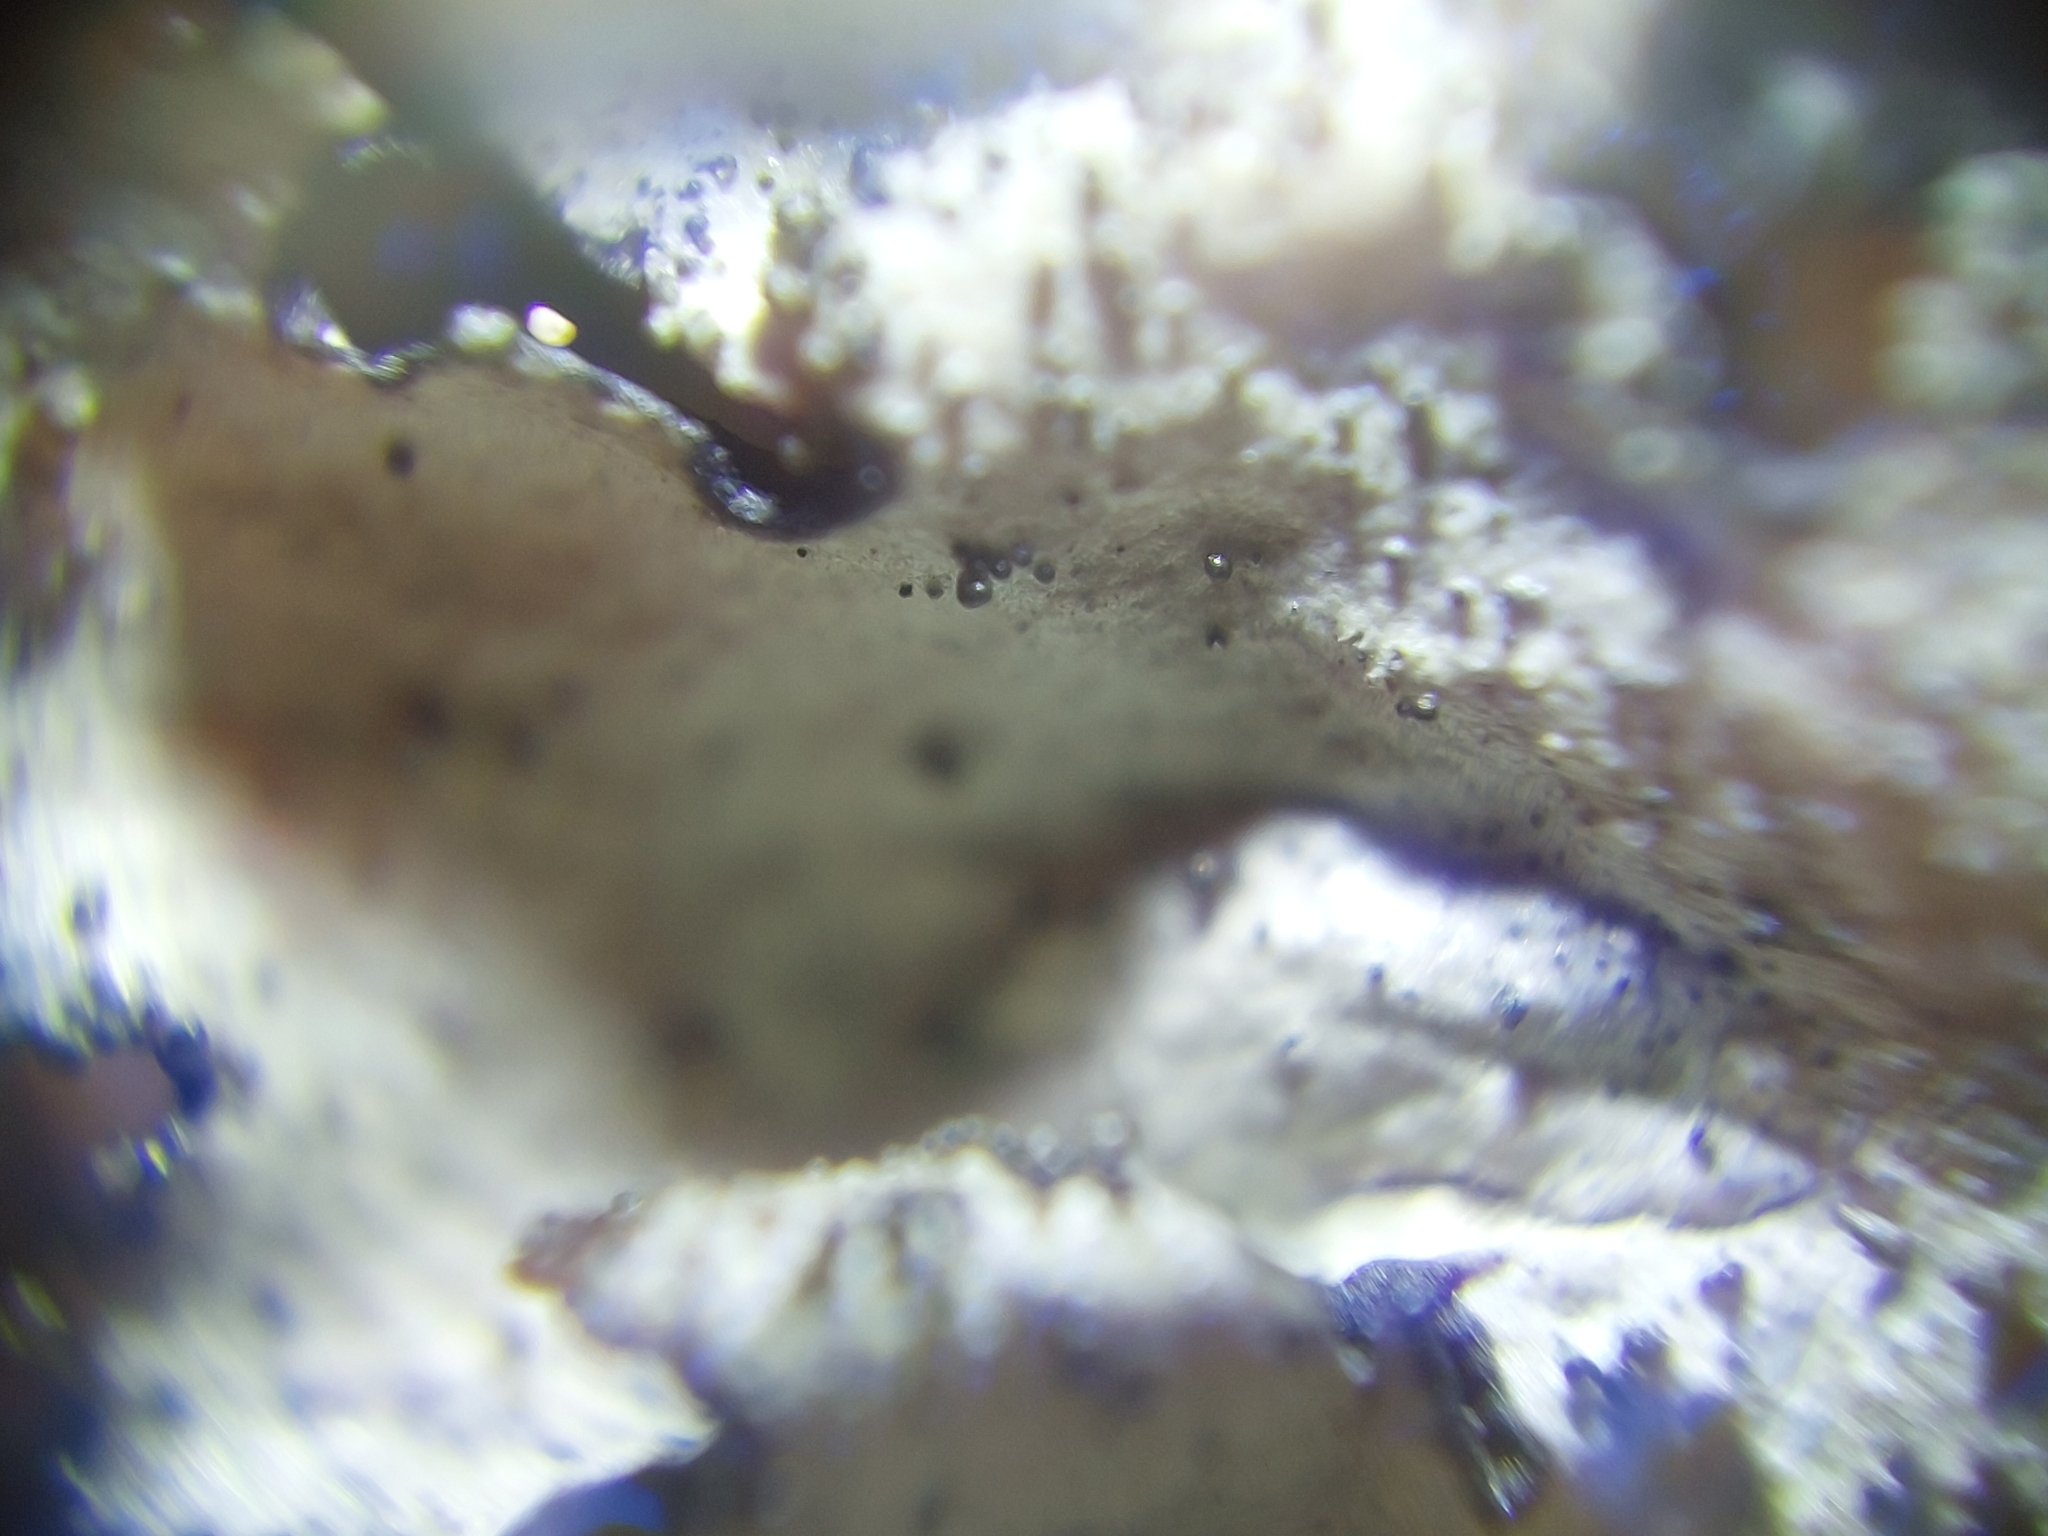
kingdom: Fungi
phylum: Ascomycota
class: Lecanoromycetes
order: Lecanorales
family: Parmeliaceae
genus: Xanthoparmelia
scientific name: Xanthoparmelia conspersa
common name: Peppered rock shield
